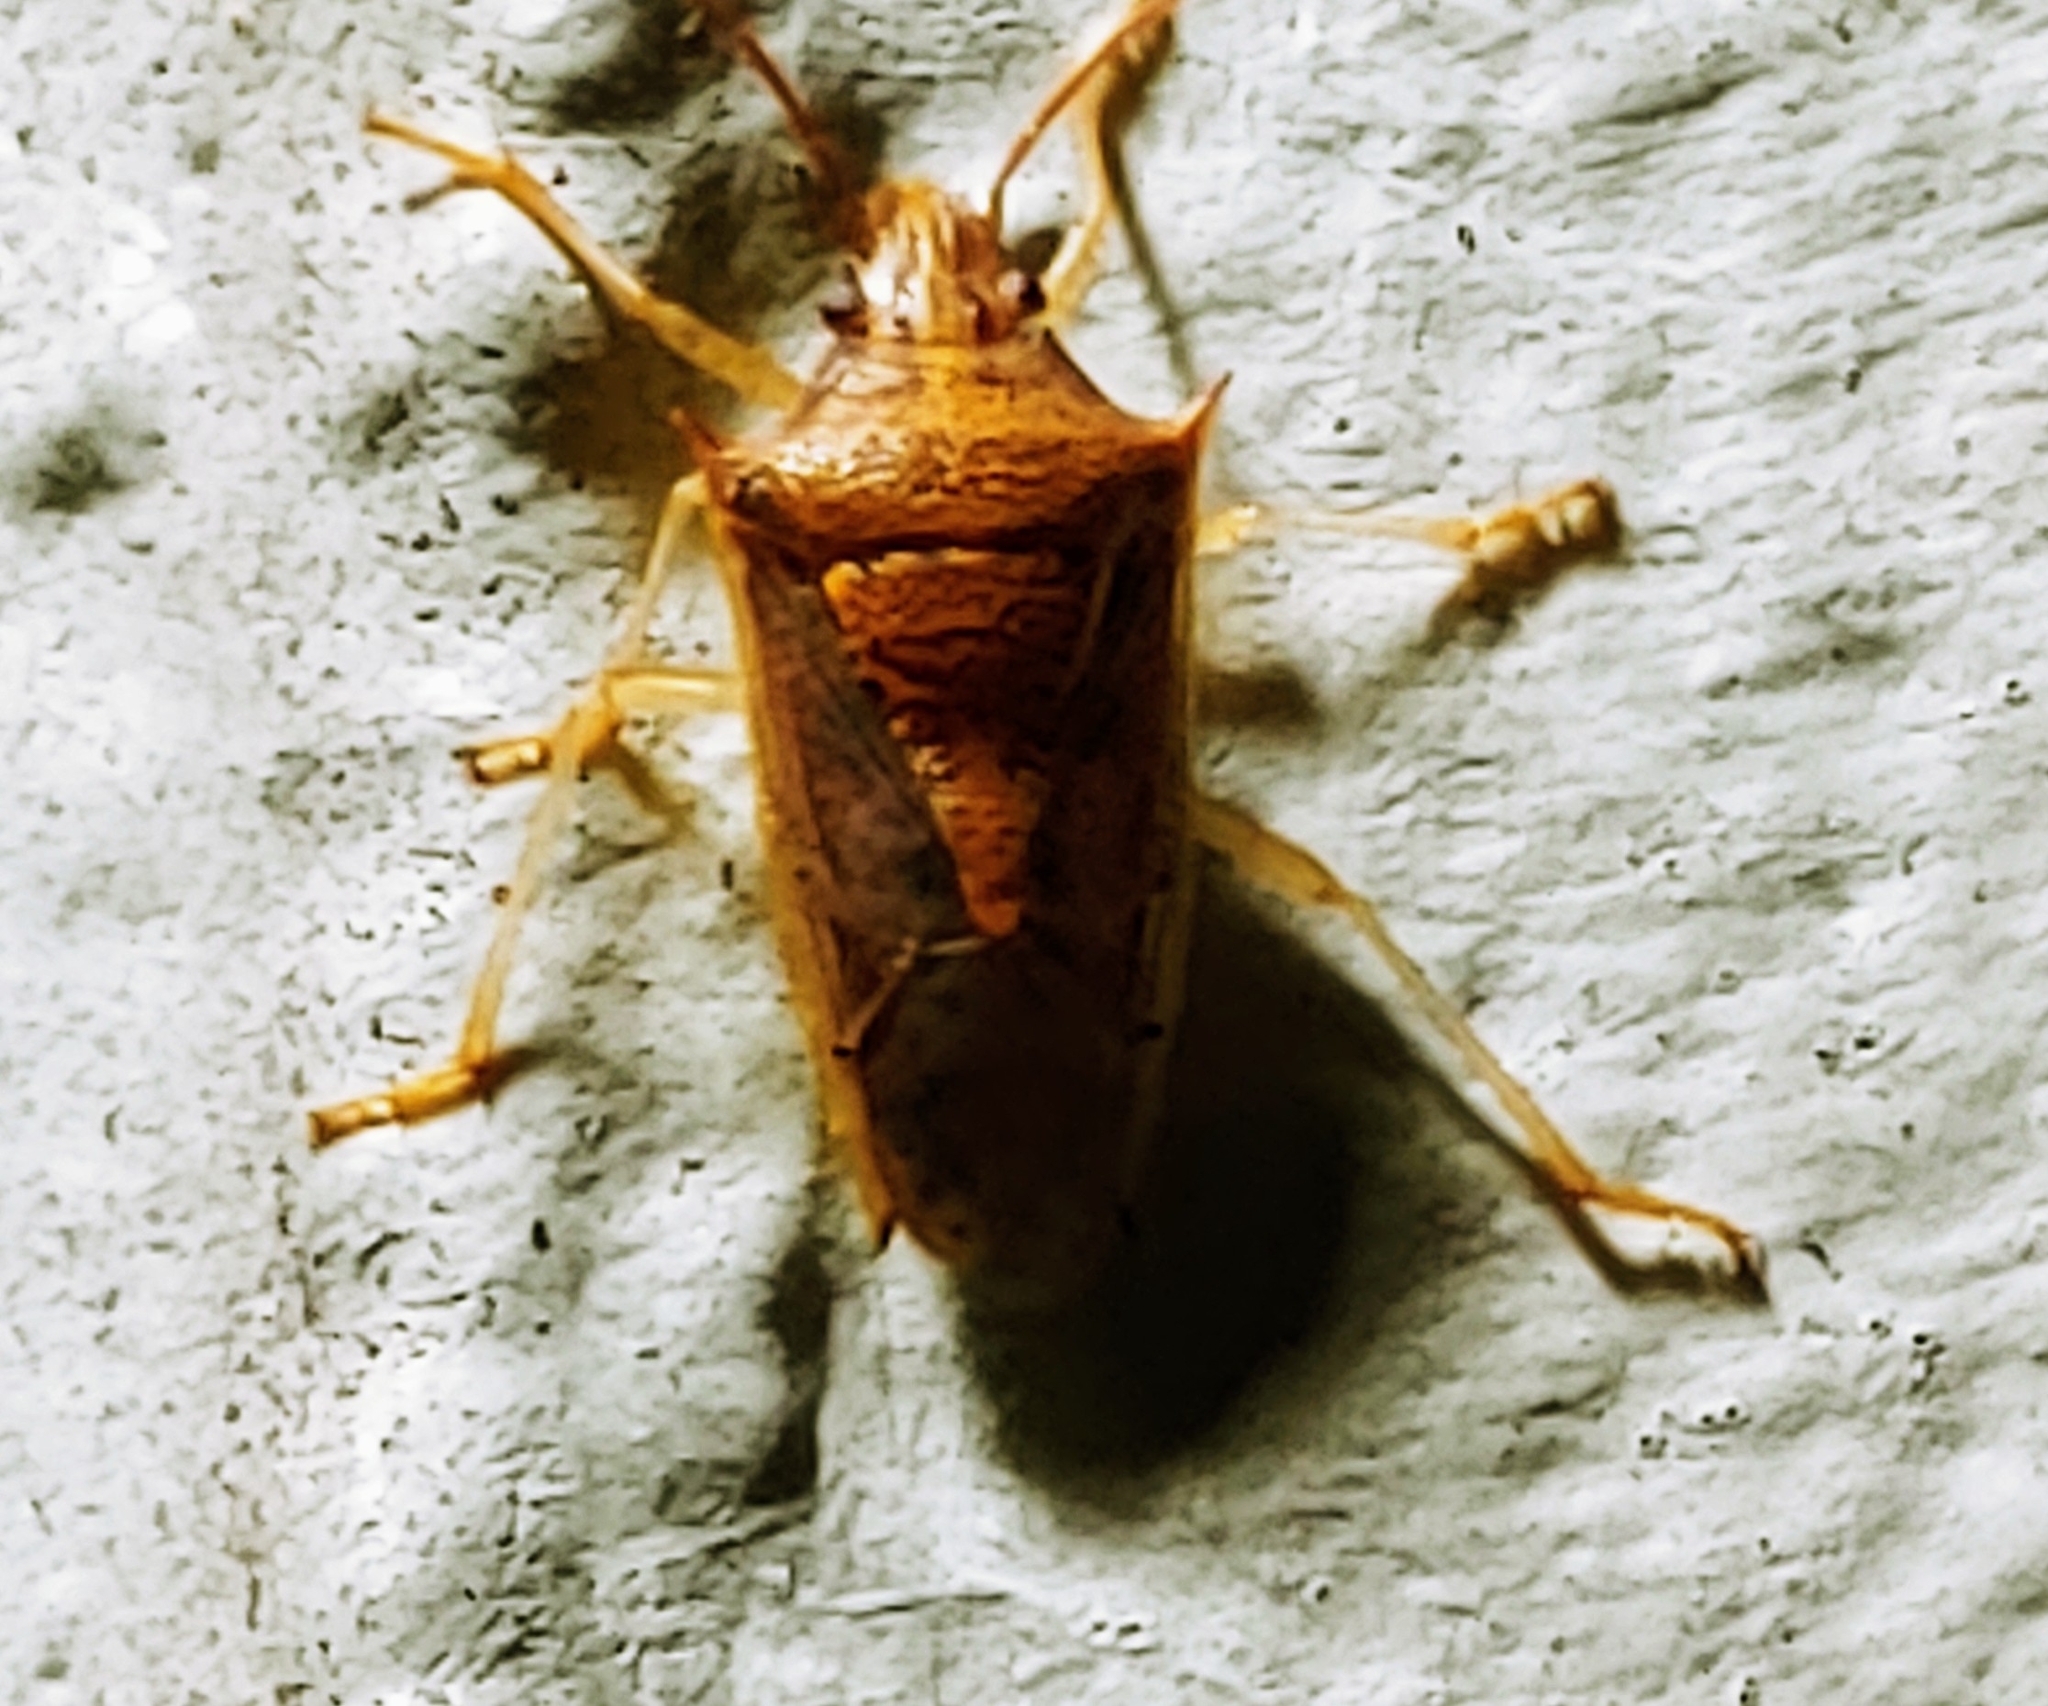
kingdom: Animalia
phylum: Arthropoda
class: Insecta
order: Hemiptera
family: Pentatomidae
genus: Oebalus
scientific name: Oebalus pugnax
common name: Rice stink bug
